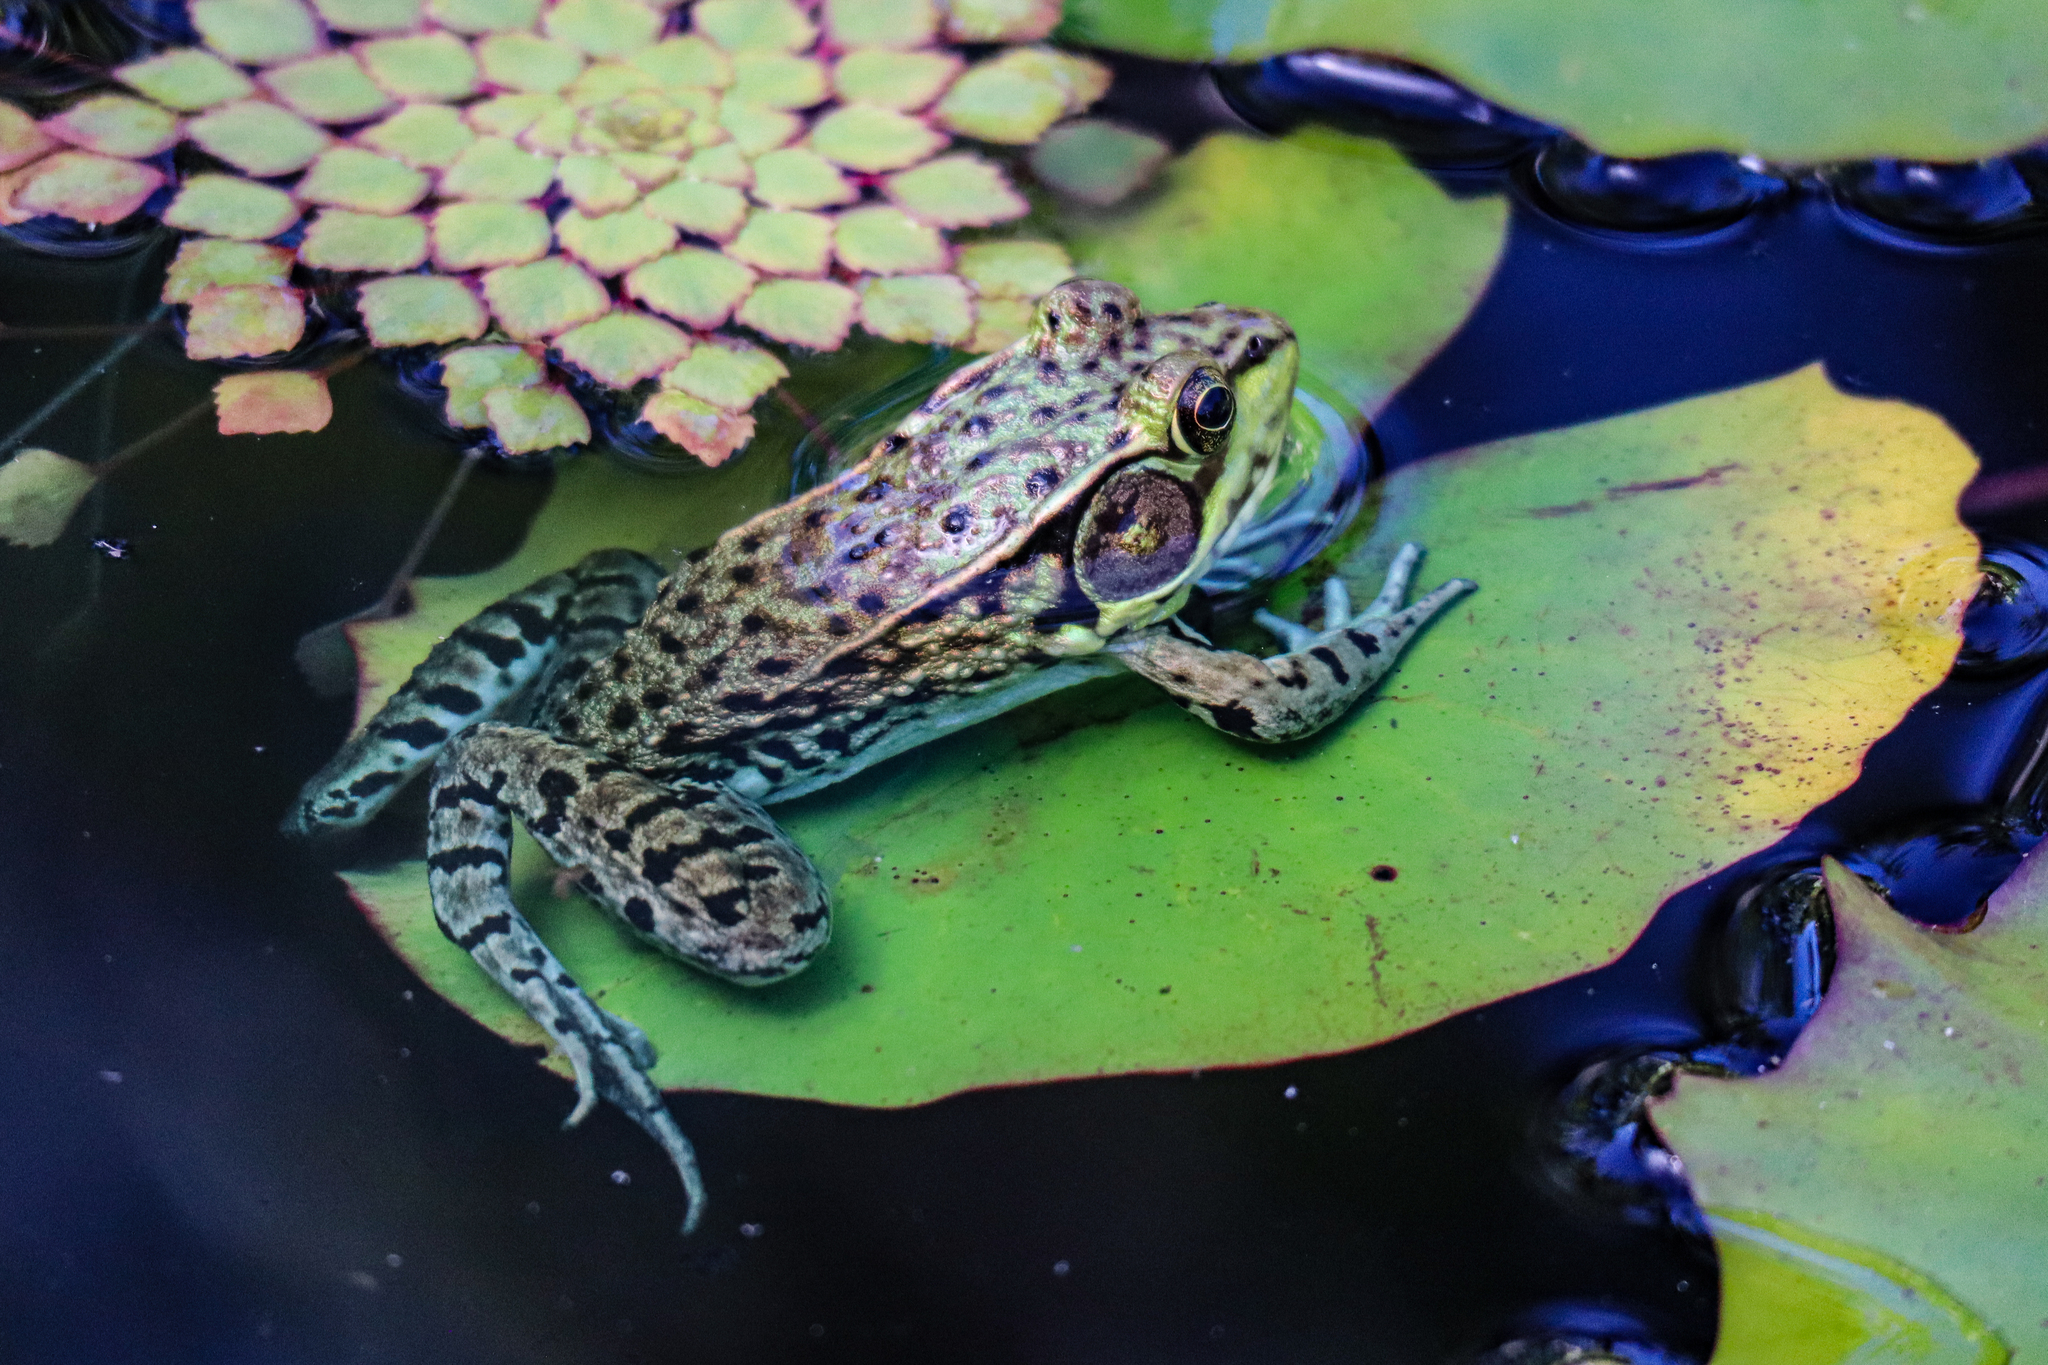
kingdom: Animalia
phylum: Chordata
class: Amphibia
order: Anura
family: Ranidae
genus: Lithobates
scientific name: Lithobates clamitans
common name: Green frog
